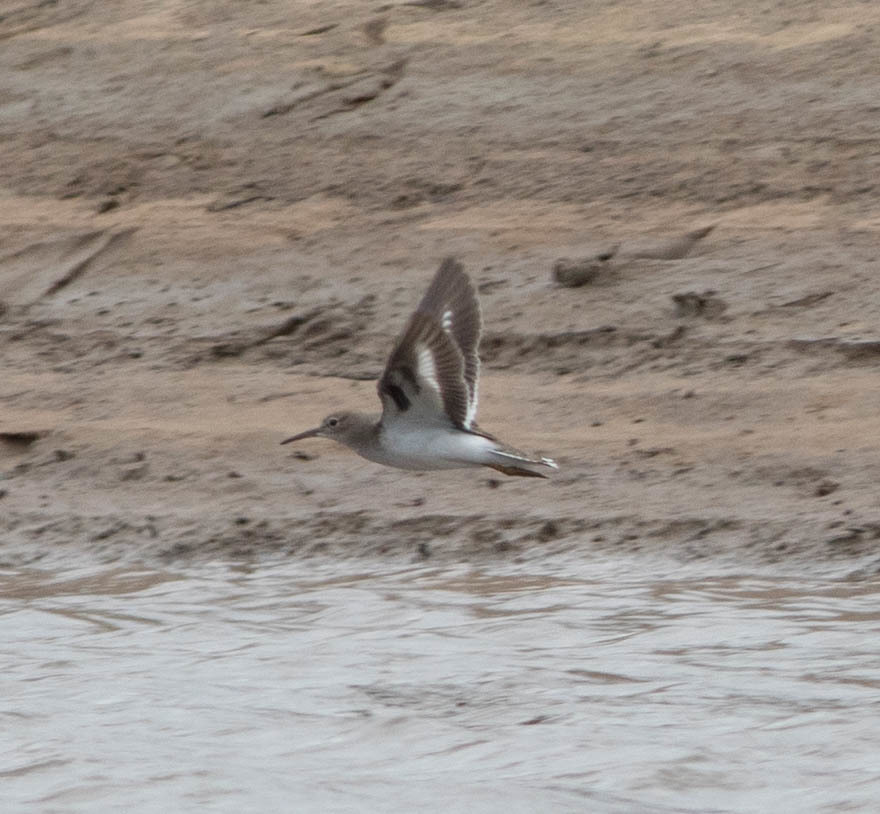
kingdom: Animalia
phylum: Chordata
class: Aves
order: Charadriiformes
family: Scolopacidae
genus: Actitis
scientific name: Actitis macularius
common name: Spotted sandpiper
